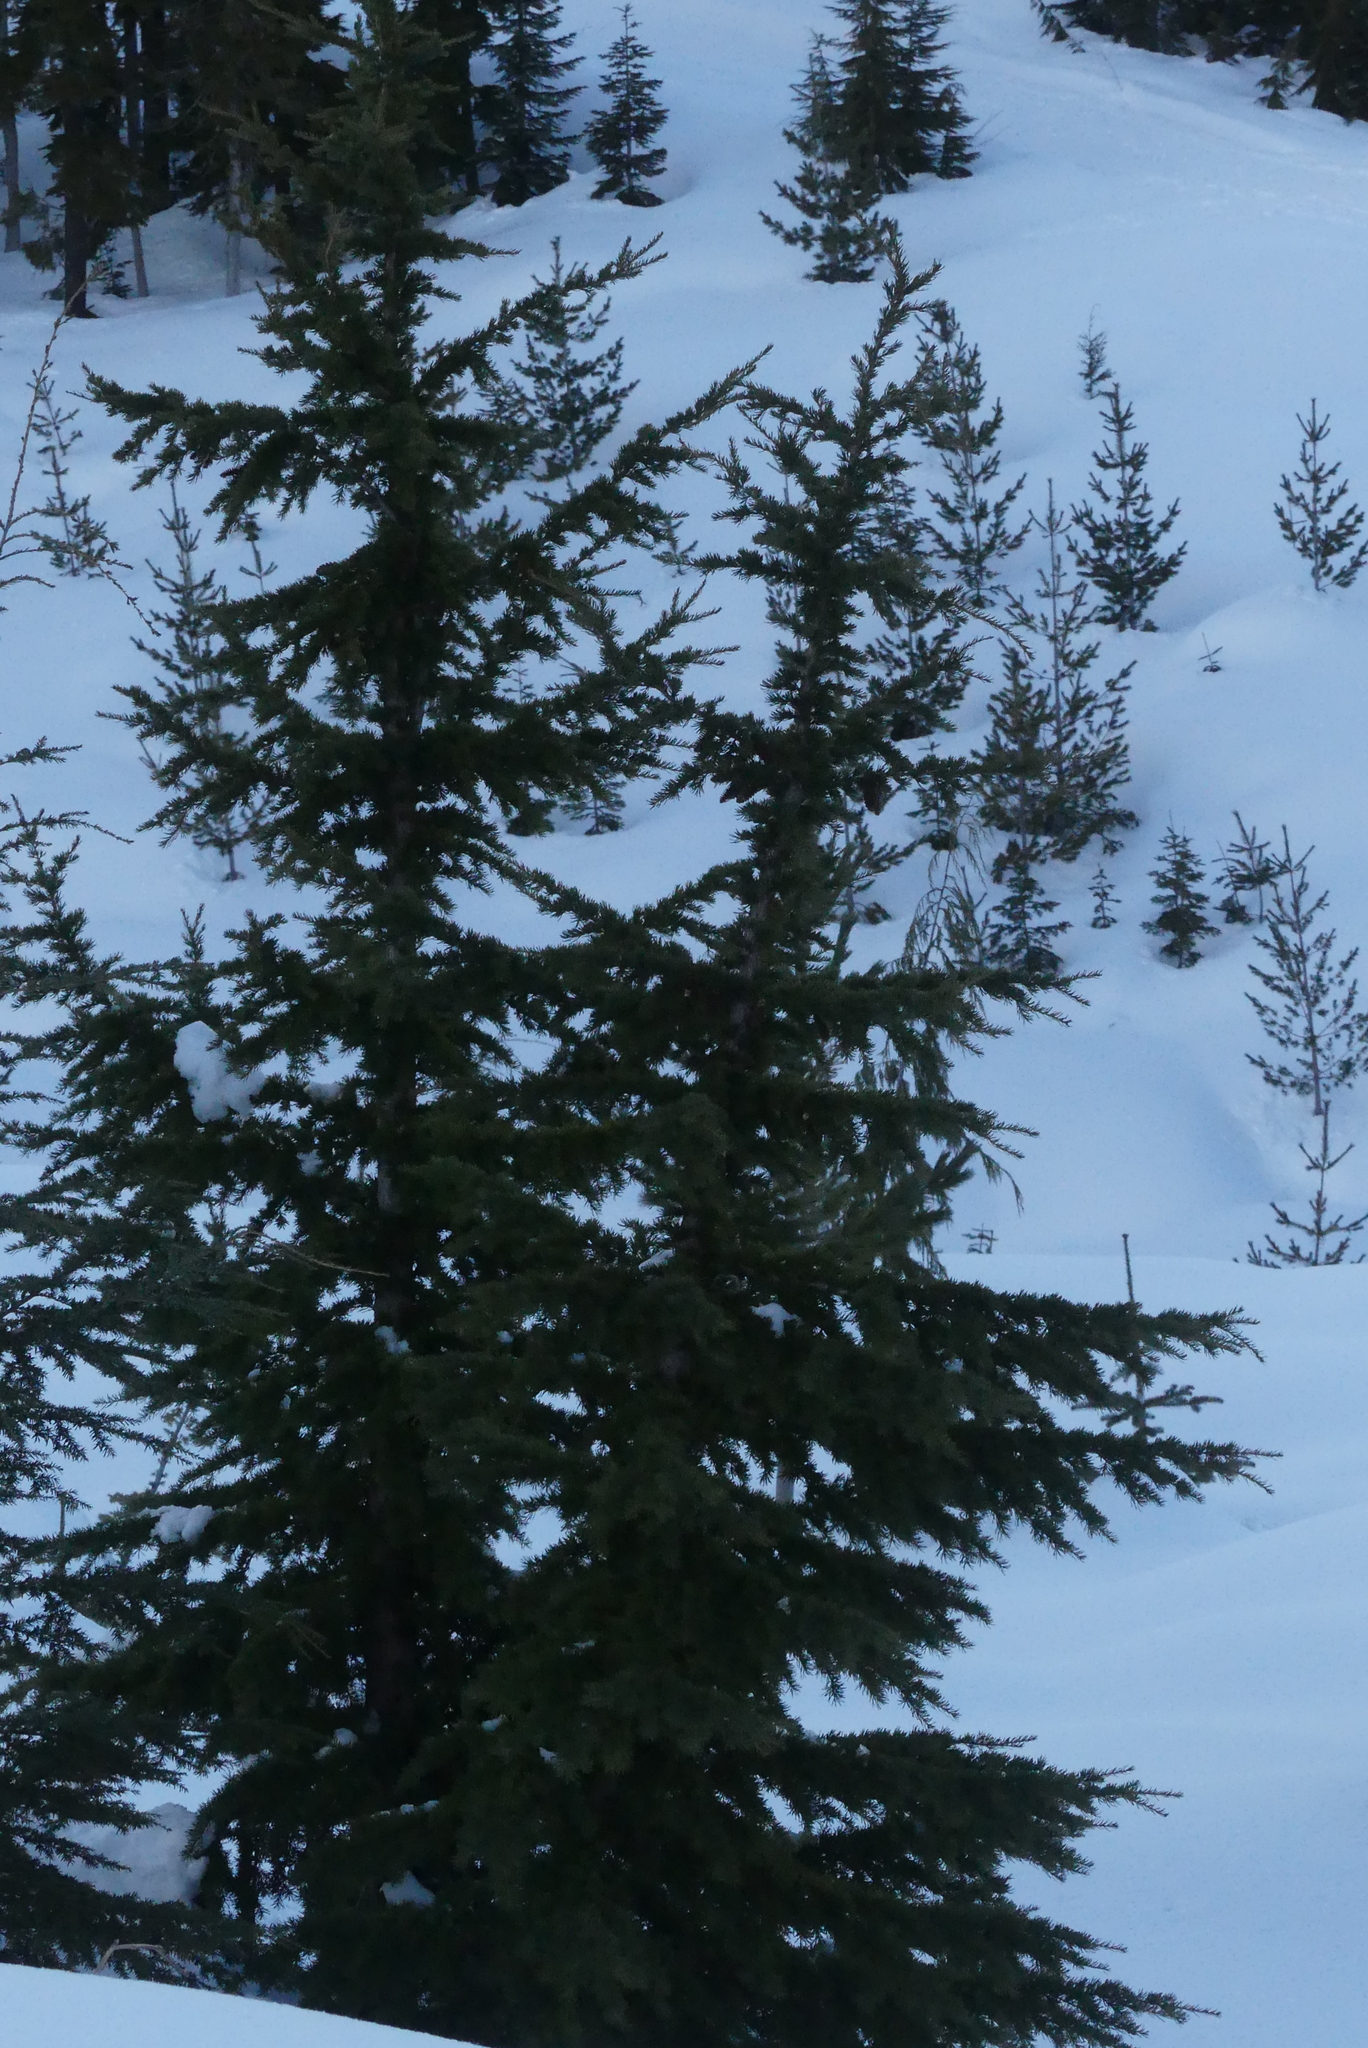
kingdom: Plantae
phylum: Tracheophyta
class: Pinopsida
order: Pinales
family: Pinaceae
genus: Tsuga
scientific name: Tsuga mertensiana
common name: Mountain hemlock
